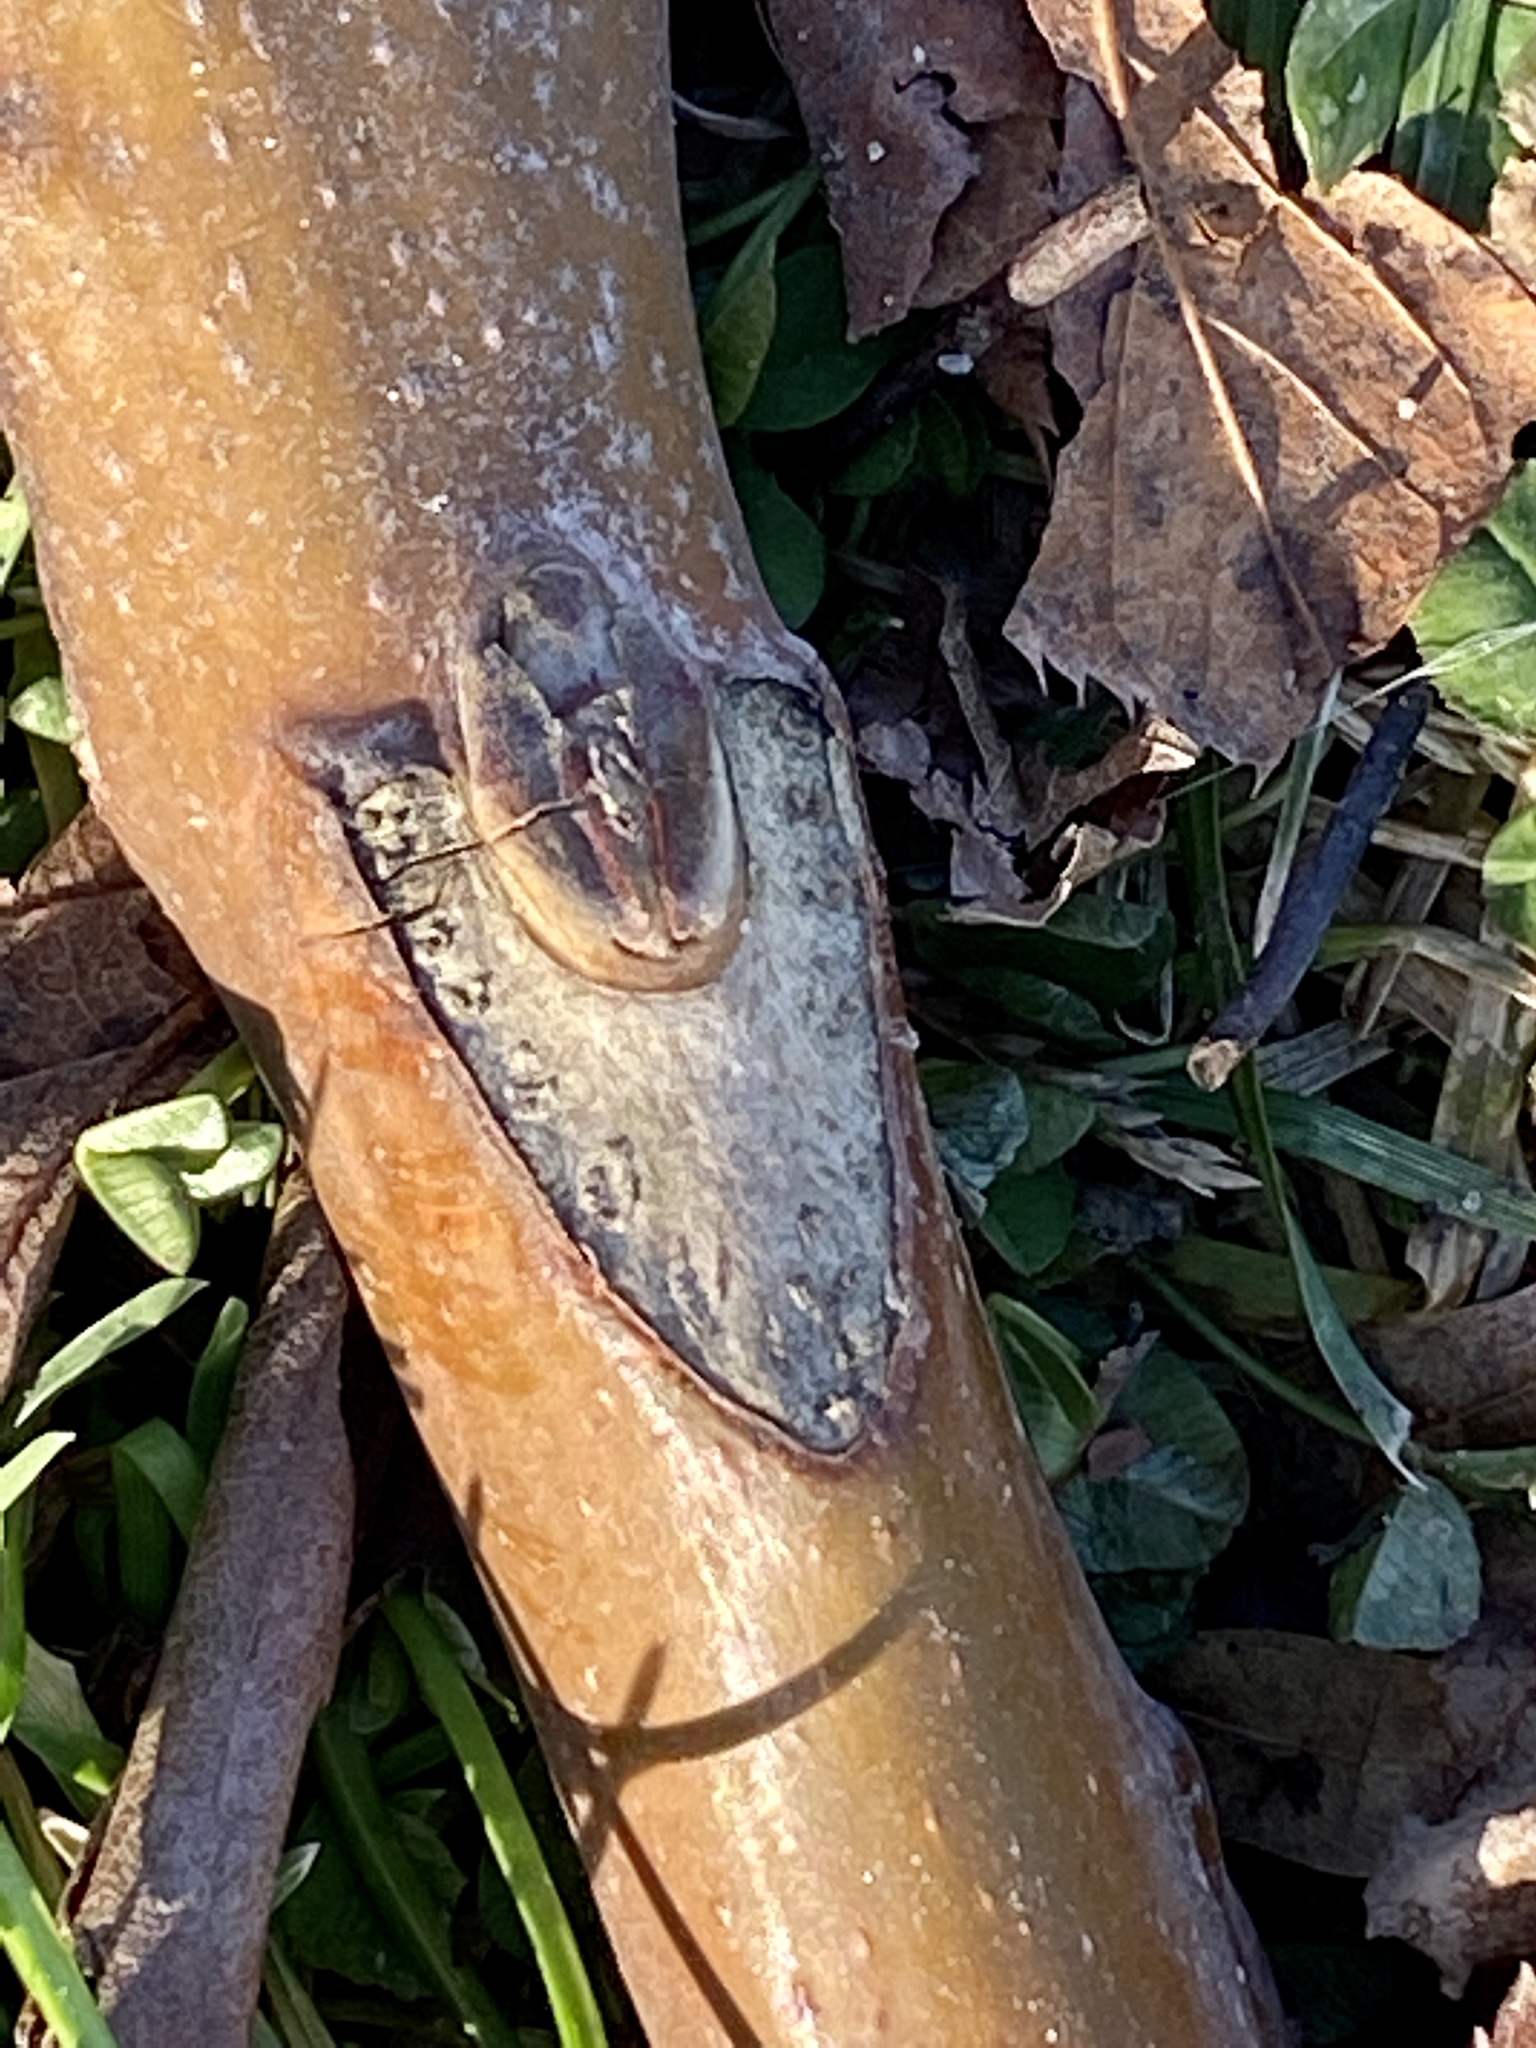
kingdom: Plantae
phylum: Tracheophyta
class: Magnoliopsida
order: Sapindales
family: Simaroubaceae
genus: Ailanthus
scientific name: Ailanthus altissima
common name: Tree-of-heaven
